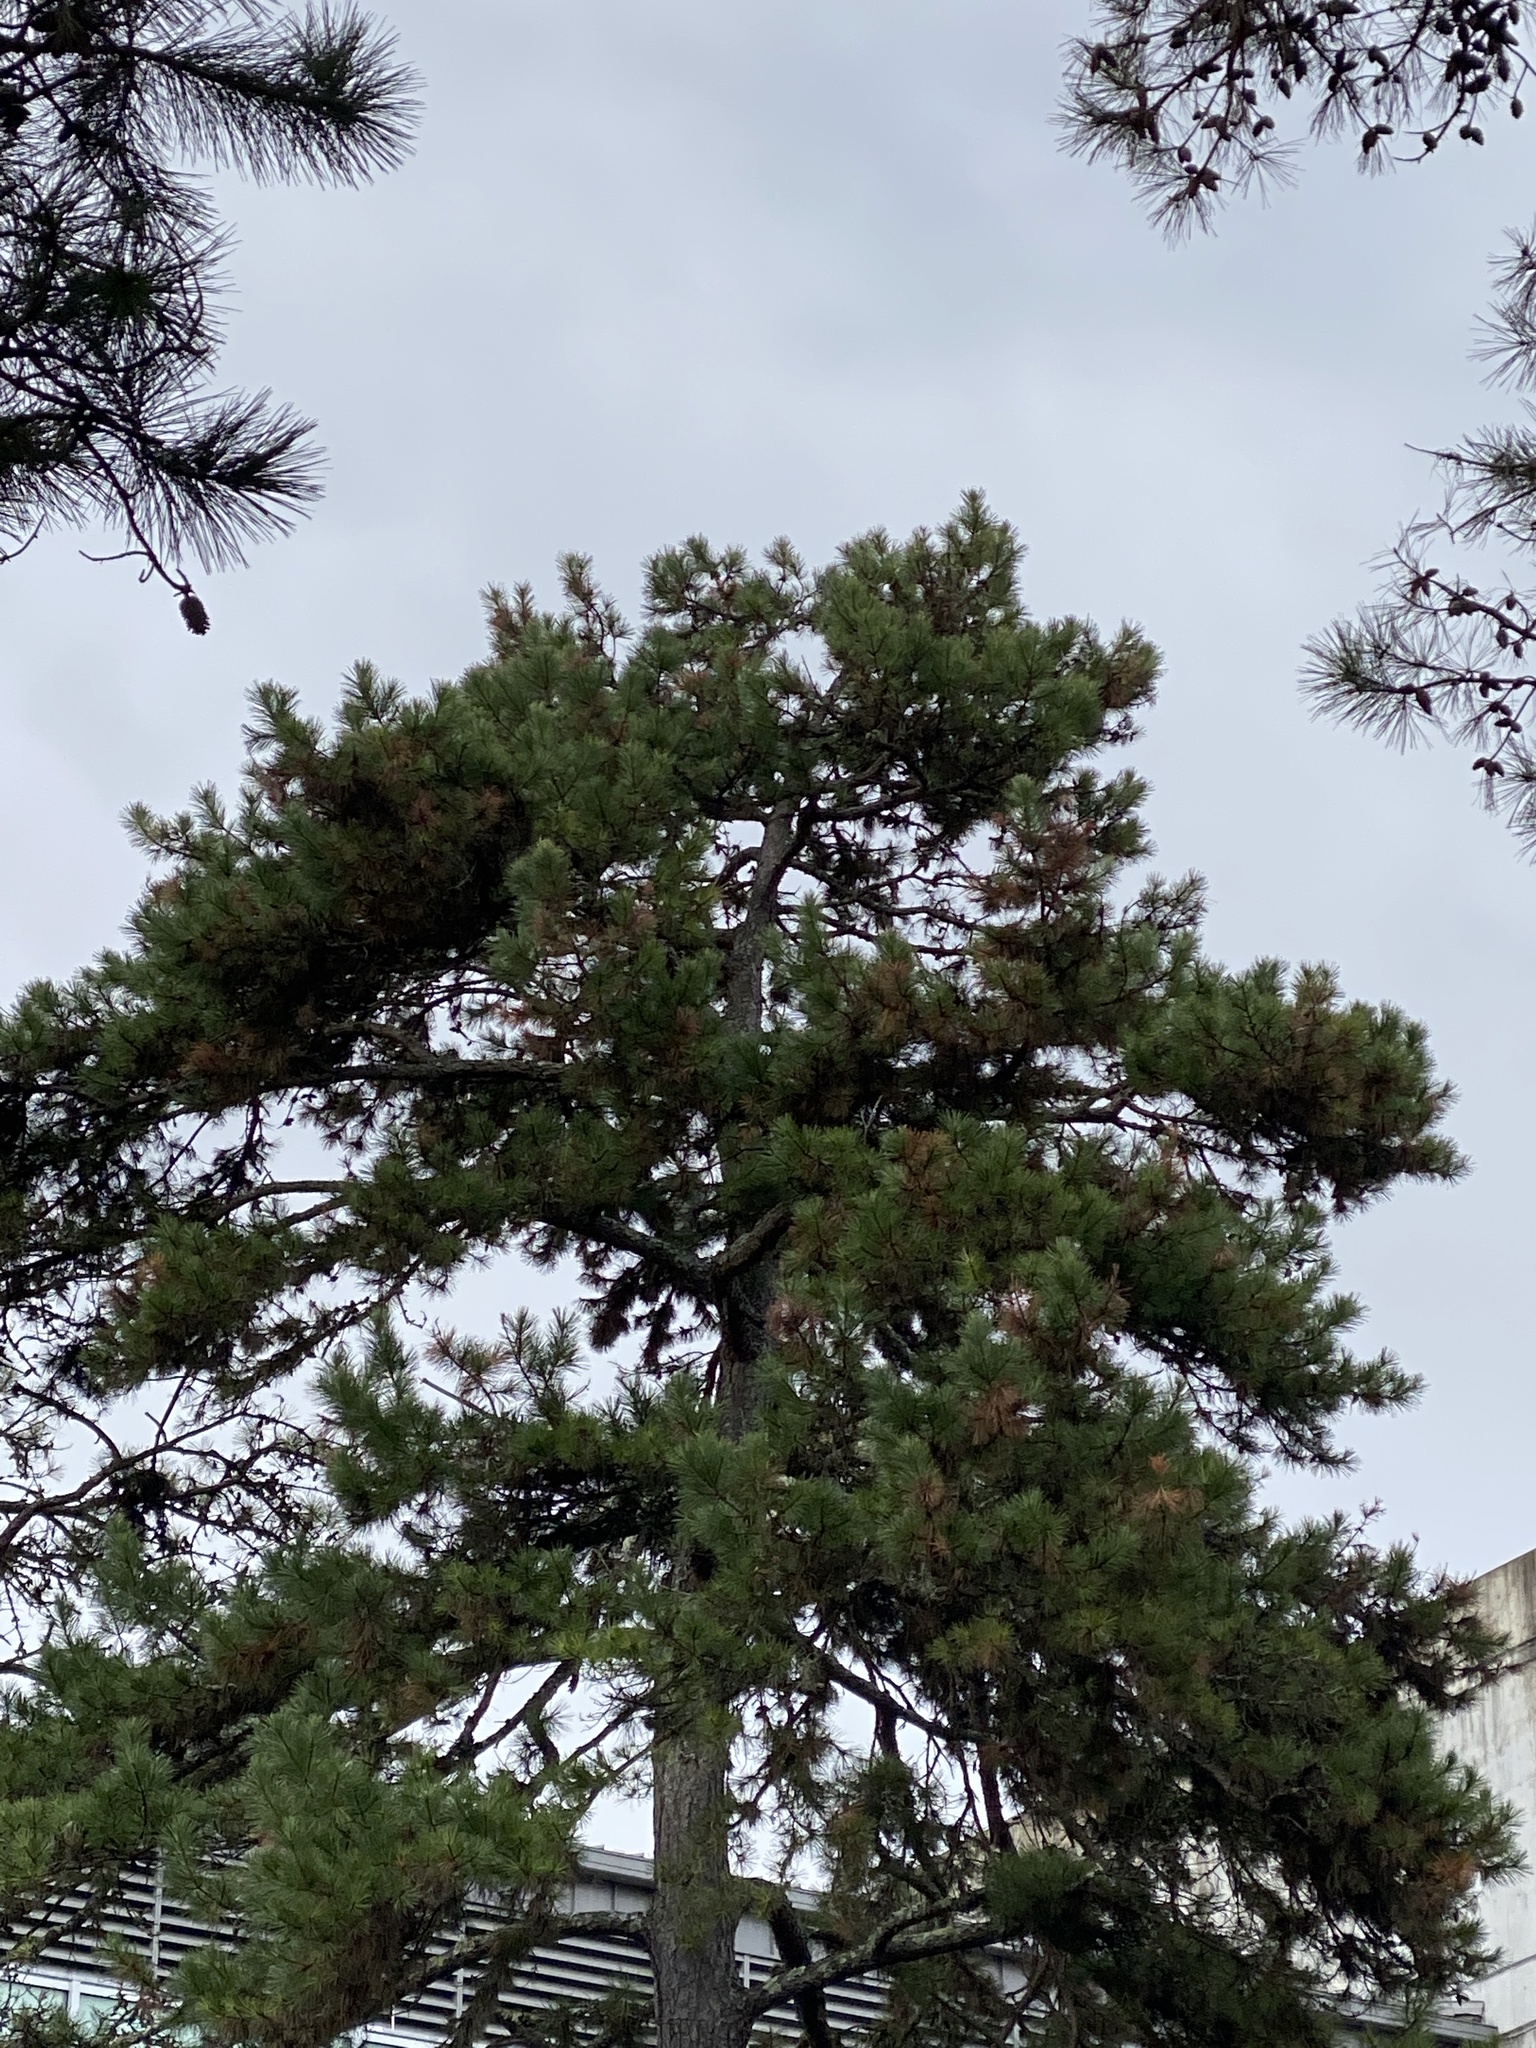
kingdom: Plantae
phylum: Tracheophyta
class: Pinopsida
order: Pinales
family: Pinaceae
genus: Pinus
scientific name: Pinus rigida
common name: Pitch pine
